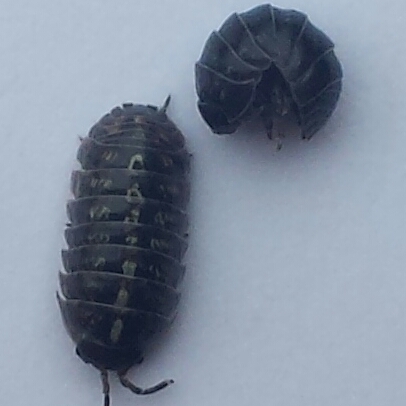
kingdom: Animalia
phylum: Arthropoda
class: Malacostraca
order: Isopoda
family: Armadillidiidae
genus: Armadillidium
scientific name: Armadillidium vulgare
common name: Common pill woodlouse
